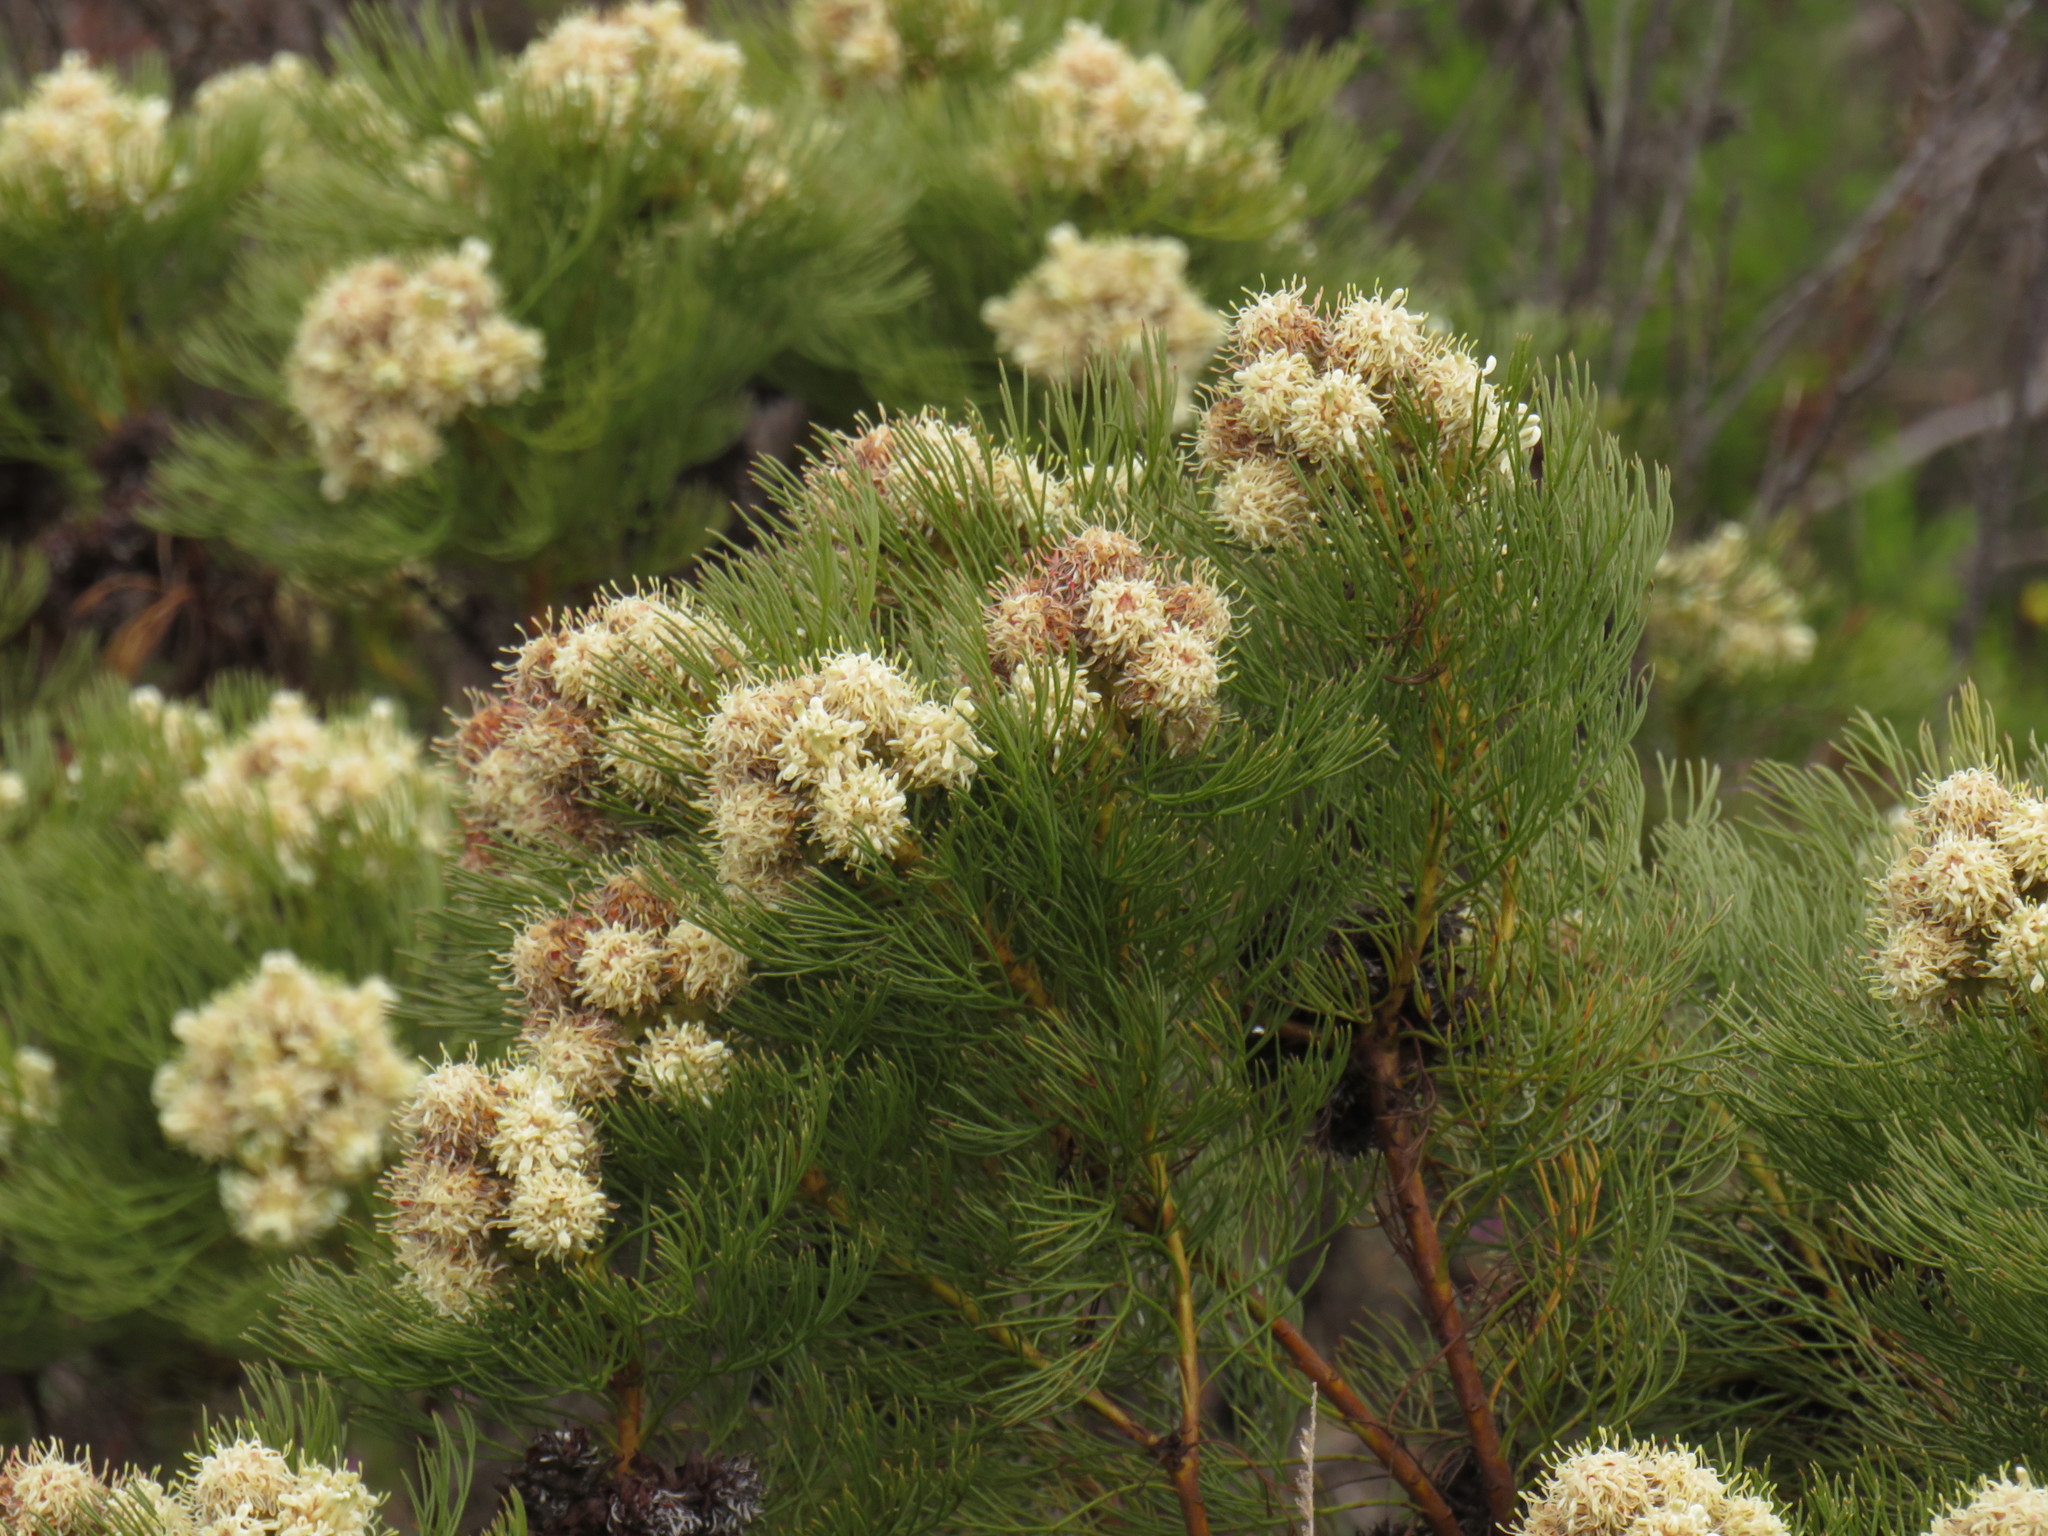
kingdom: Plantae
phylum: Tracheophyta
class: Magnoliopsida
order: Proteales
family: Proteaceae
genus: Serruria
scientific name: Serruria glomerata
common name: Cluster spiderhead
